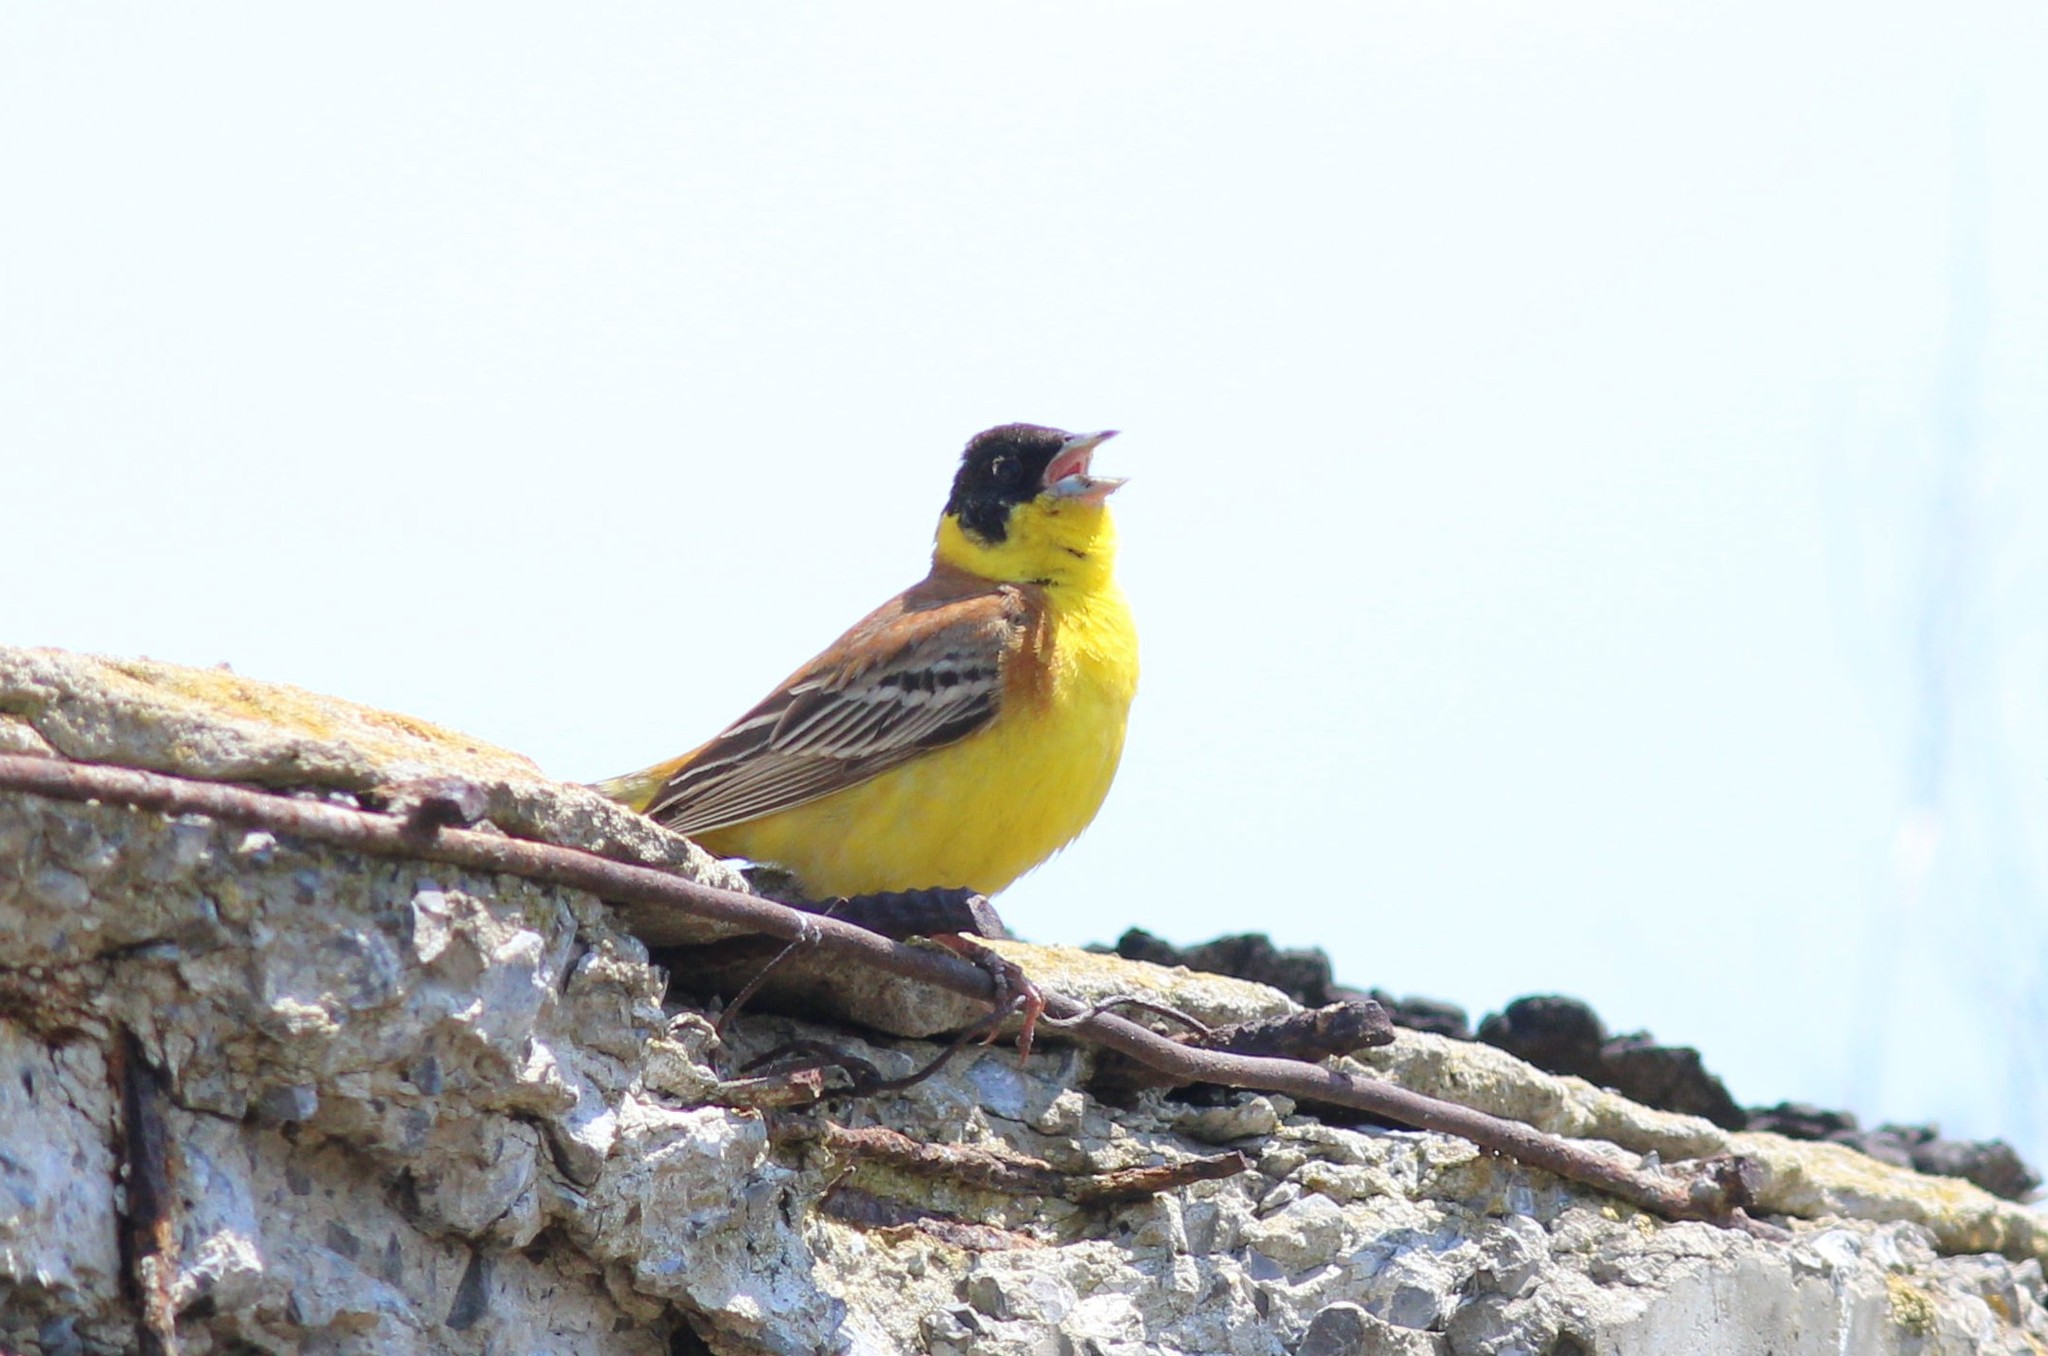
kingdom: Animalia
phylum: Chordata
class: Aves
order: Passeriformes
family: Emberizidae
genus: Emberiza
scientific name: Emberiza melanocephala
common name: Black-headed bunting
